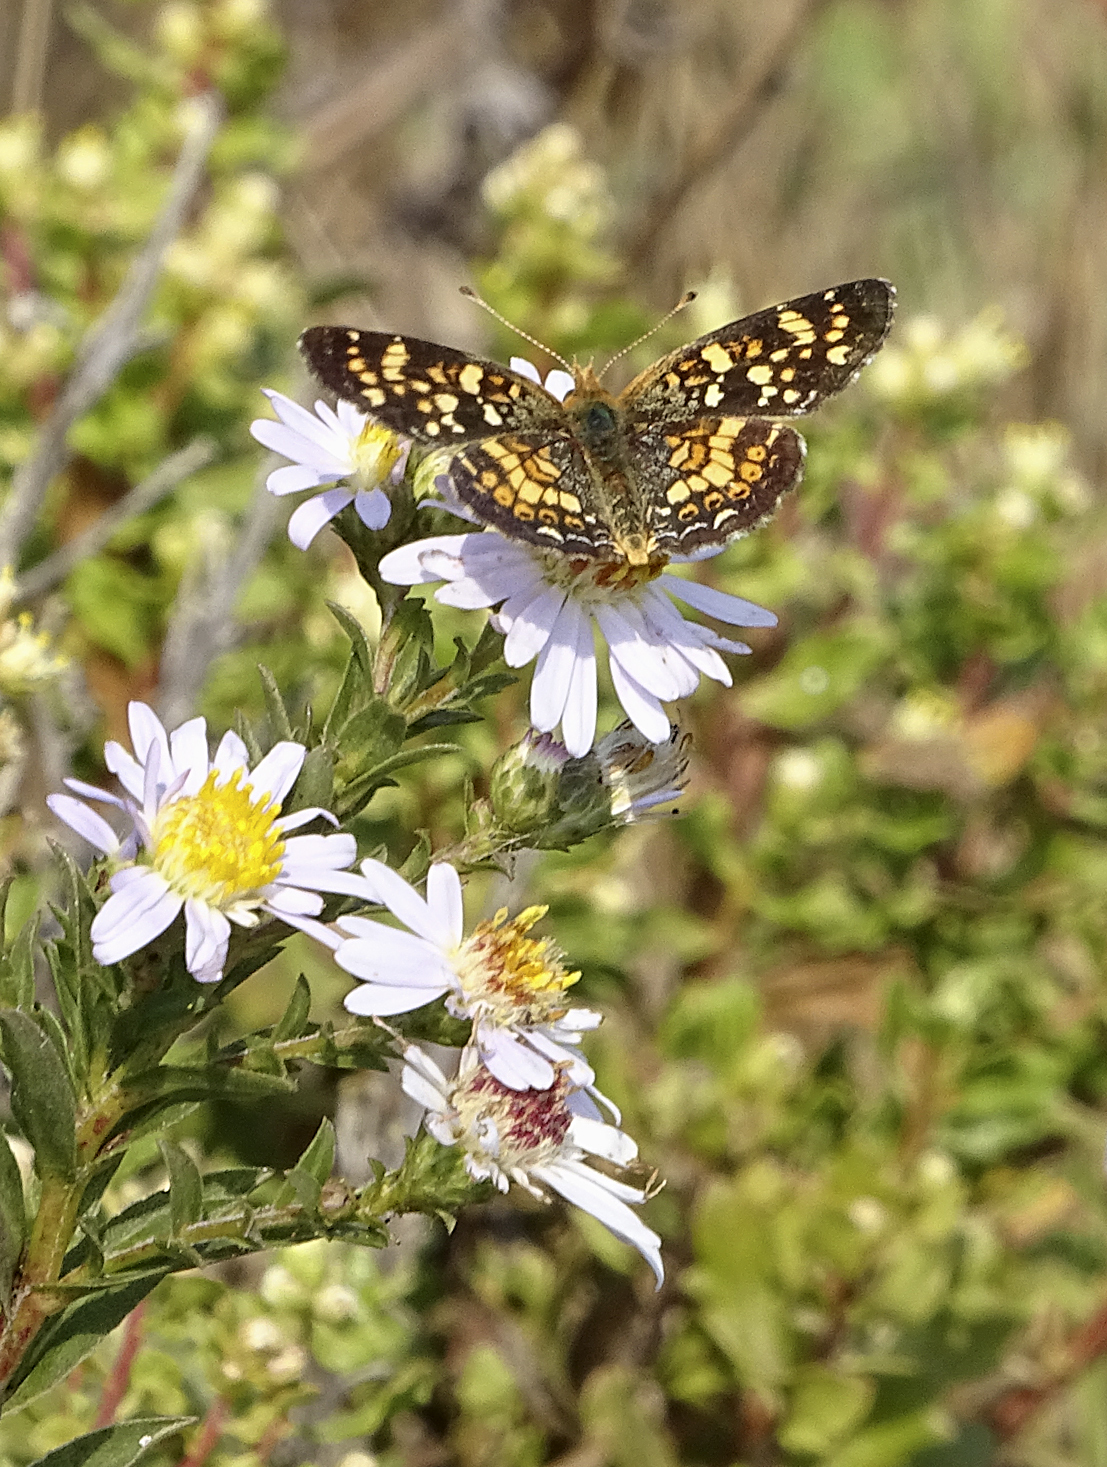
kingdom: Animalia
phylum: Arthropoda
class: Insecta
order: Lepidoptera
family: Nymphalidae
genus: Phyciodes
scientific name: Phyciodes tharos
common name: Pearl crescent
